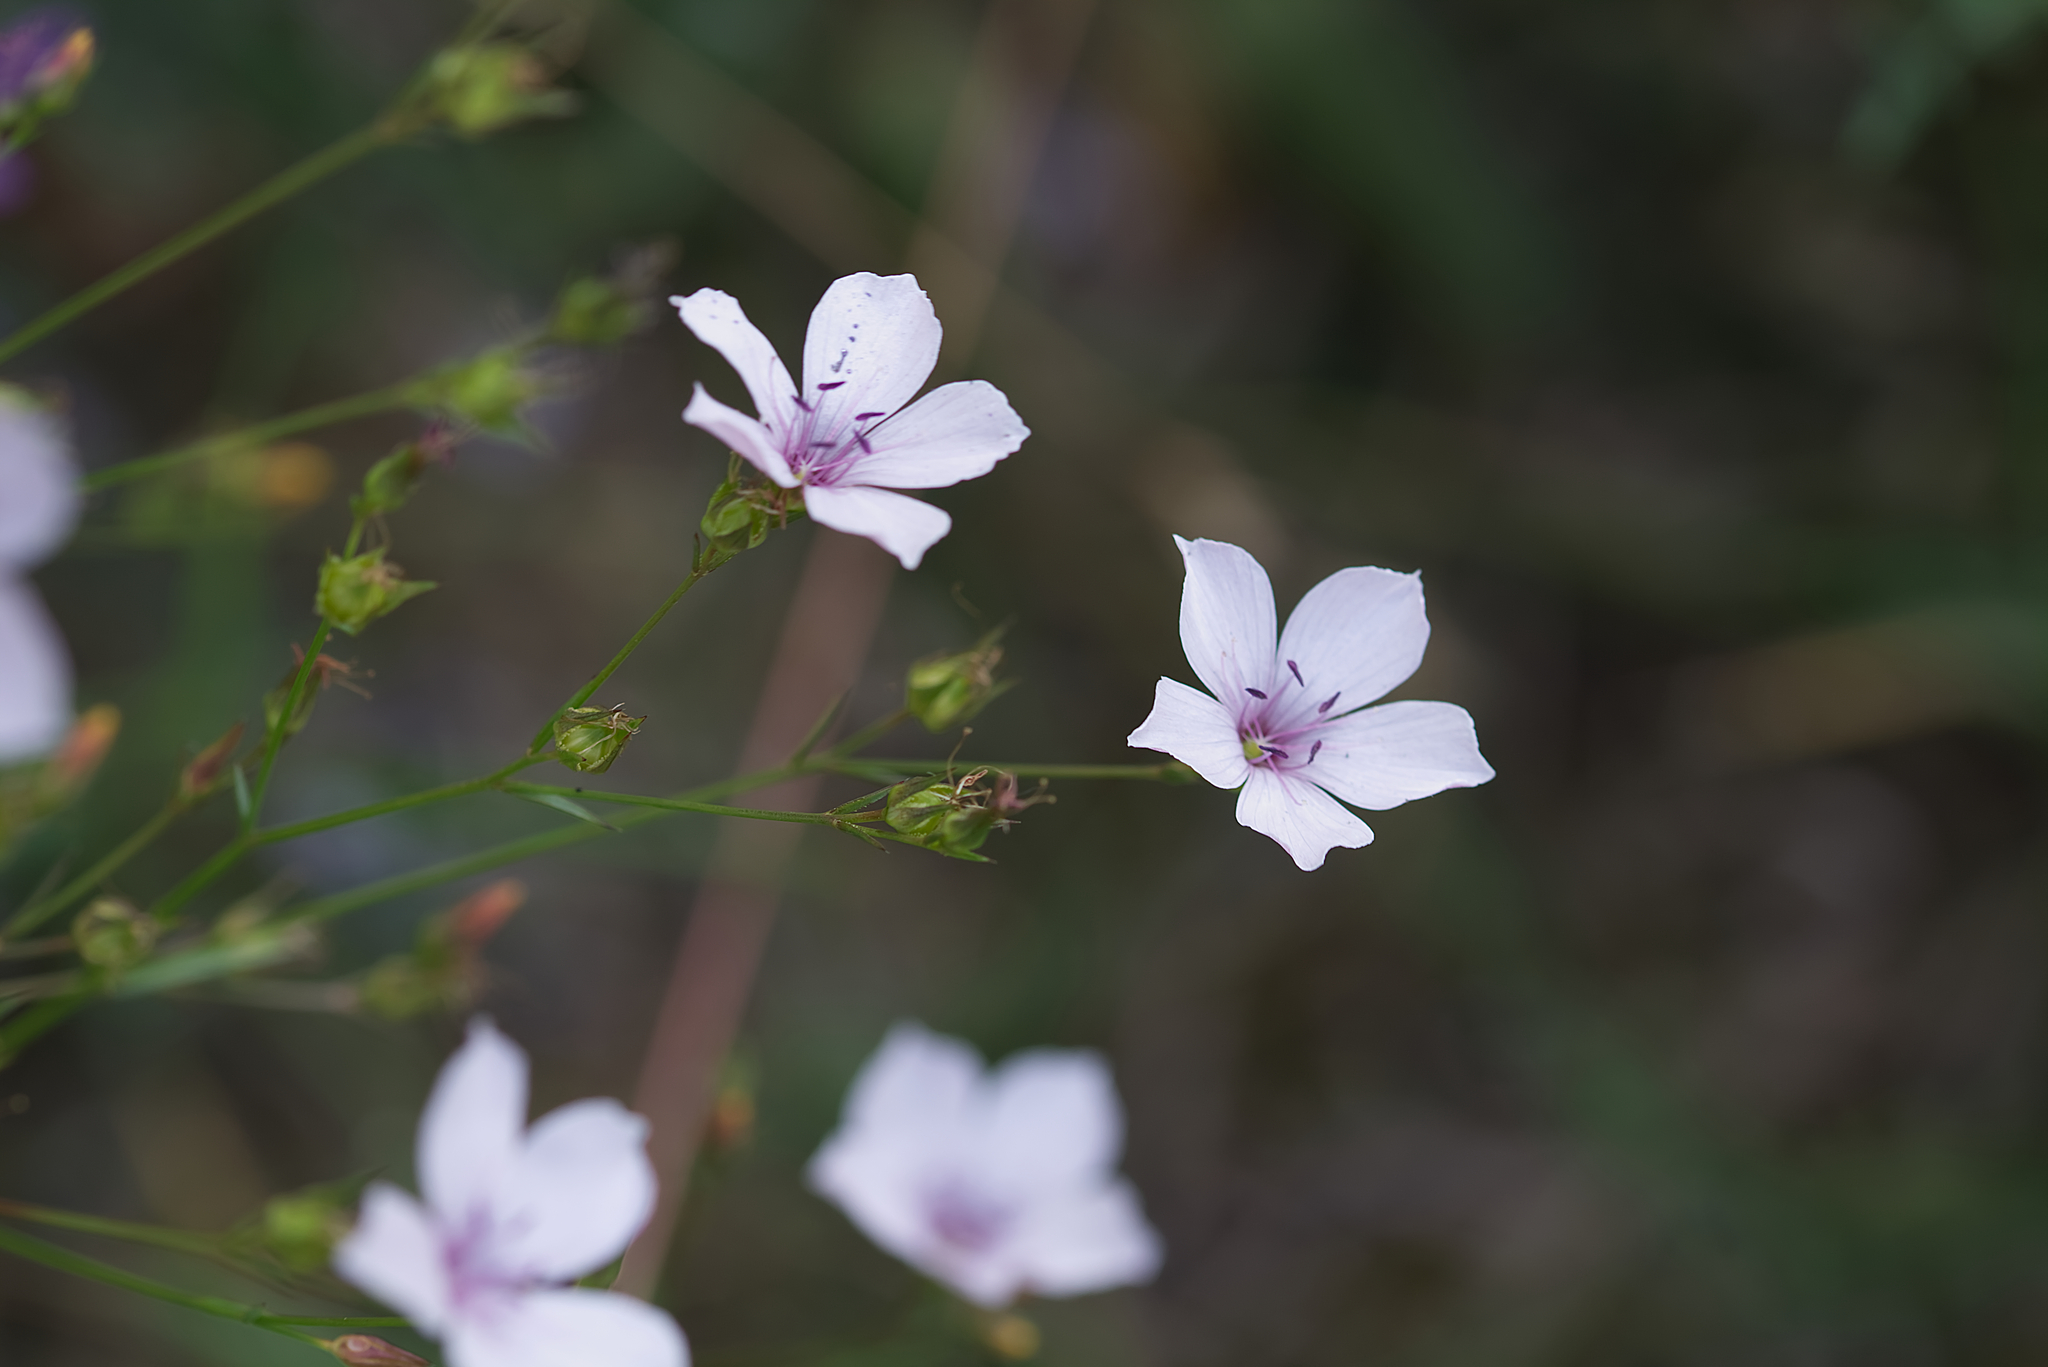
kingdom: Plantae
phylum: Tracheophyta
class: Magnoliopsida
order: Malpighiales
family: Linaceae
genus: Linum
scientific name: Linum tenuifolium
